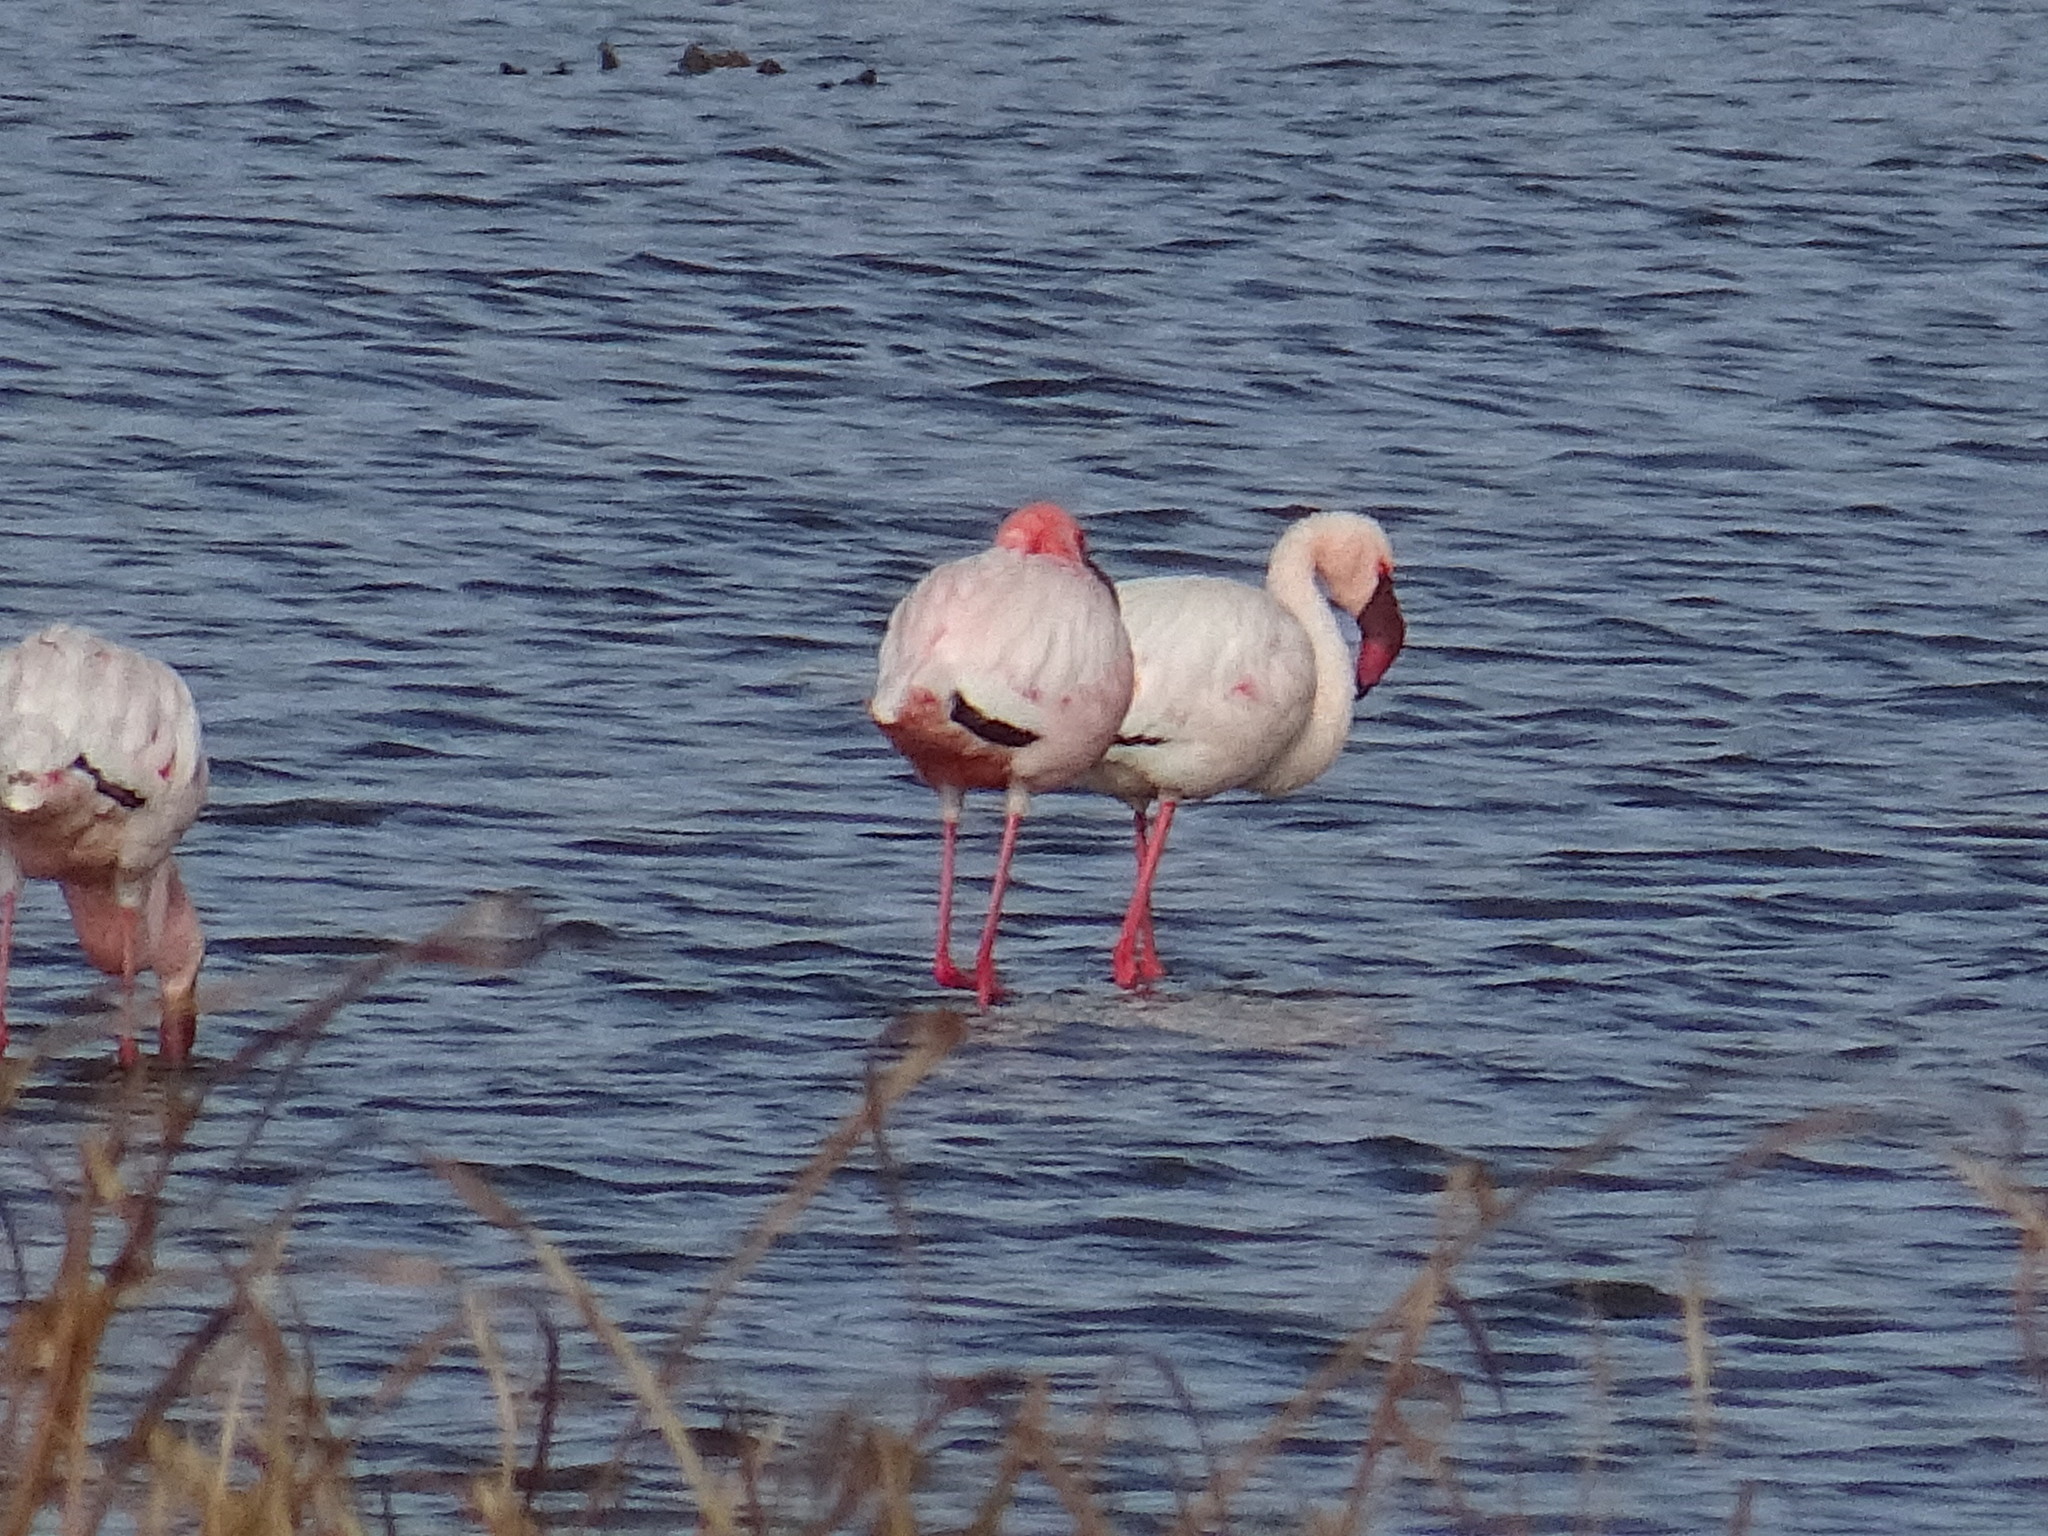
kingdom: Animalia
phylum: Chordata
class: Aves
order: Phoenicopteriformes
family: Phoenicopteridae
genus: Phoeniconaias
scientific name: Phoeniconaias minor
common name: Lesser flamingo
